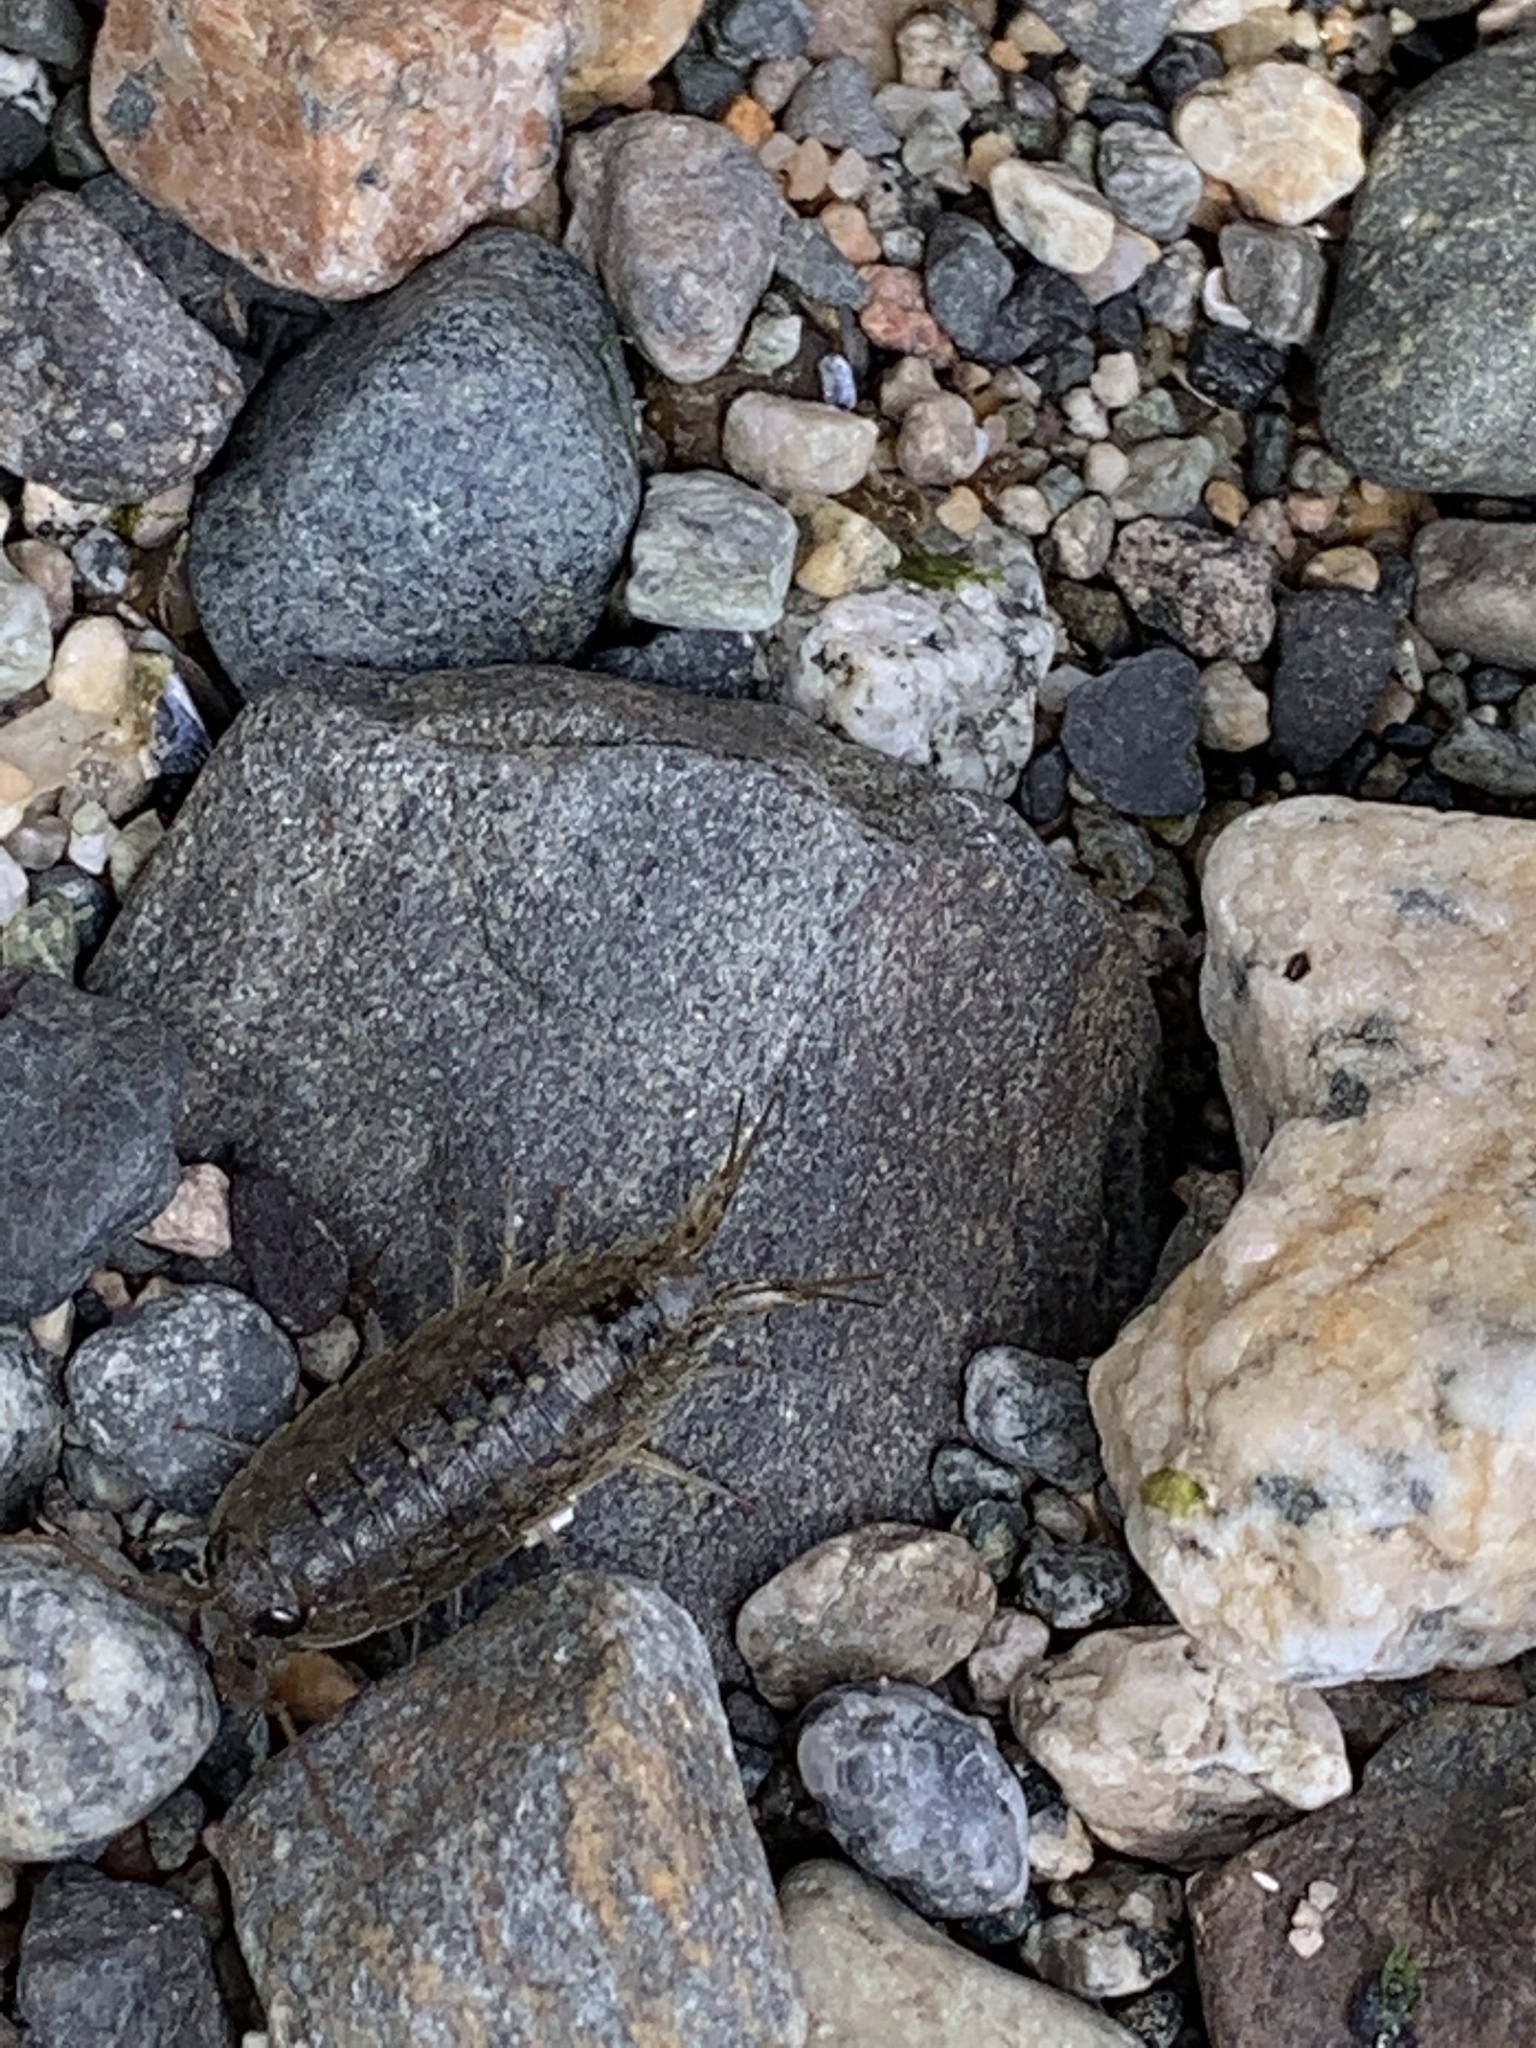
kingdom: Animalia
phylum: Arthropoda
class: Malacostraca
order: Isopoda
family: Ligiidae
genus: Ligia
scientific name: Ligia occidentalis
